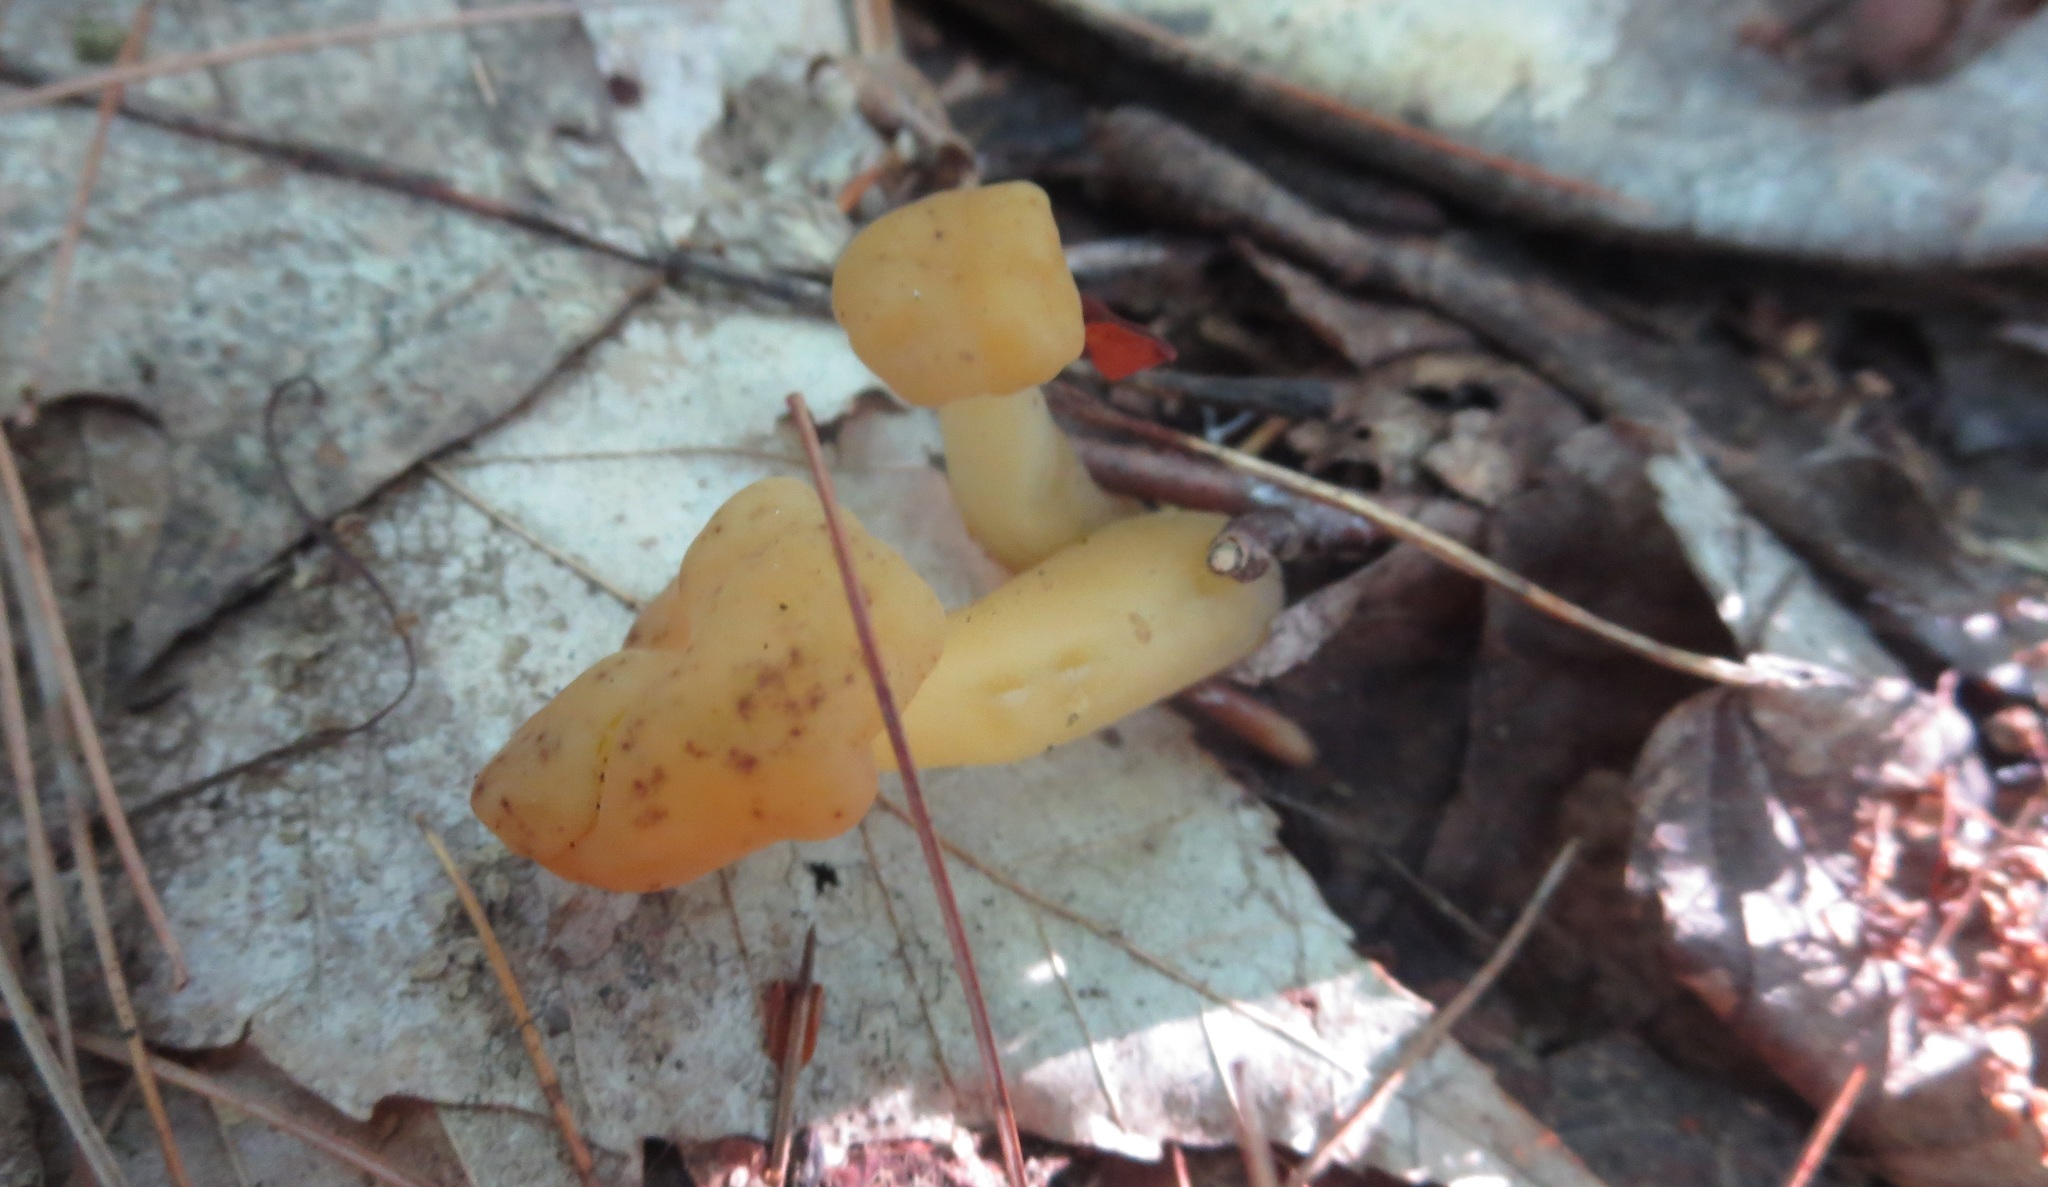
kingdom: Fungi
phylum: Ascomycota
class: Leotiomycetes
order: Leotiales
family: Leotiaceae
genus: Leotia
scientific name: Leotia lubrica
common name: Jellybaby
